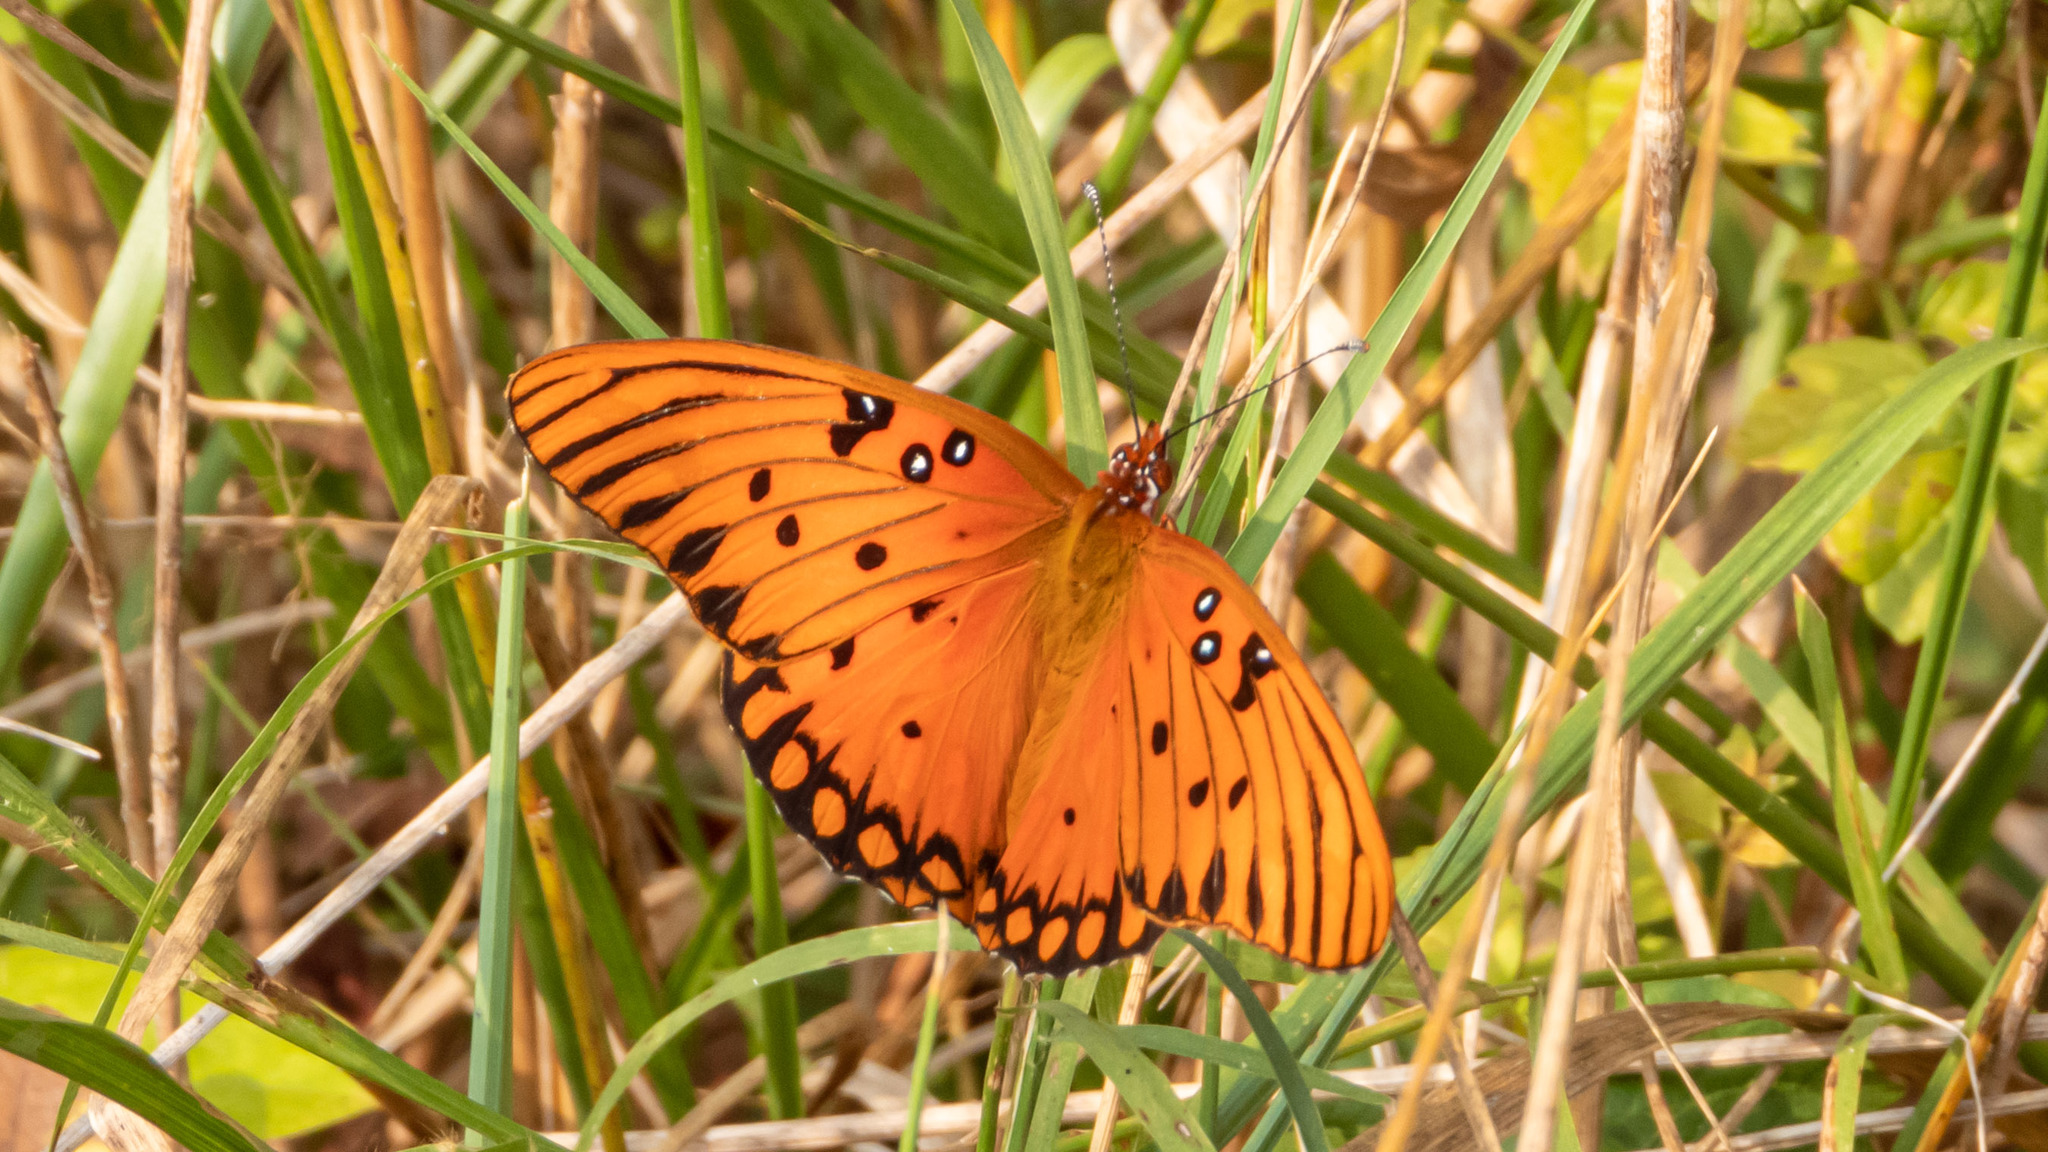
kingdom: Animalia
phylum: Arthropoda
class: Insecta
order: Lepidoptera
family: Nymphalidae
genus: Dione
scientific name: Dione vanillae
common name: Gulf fritillary
